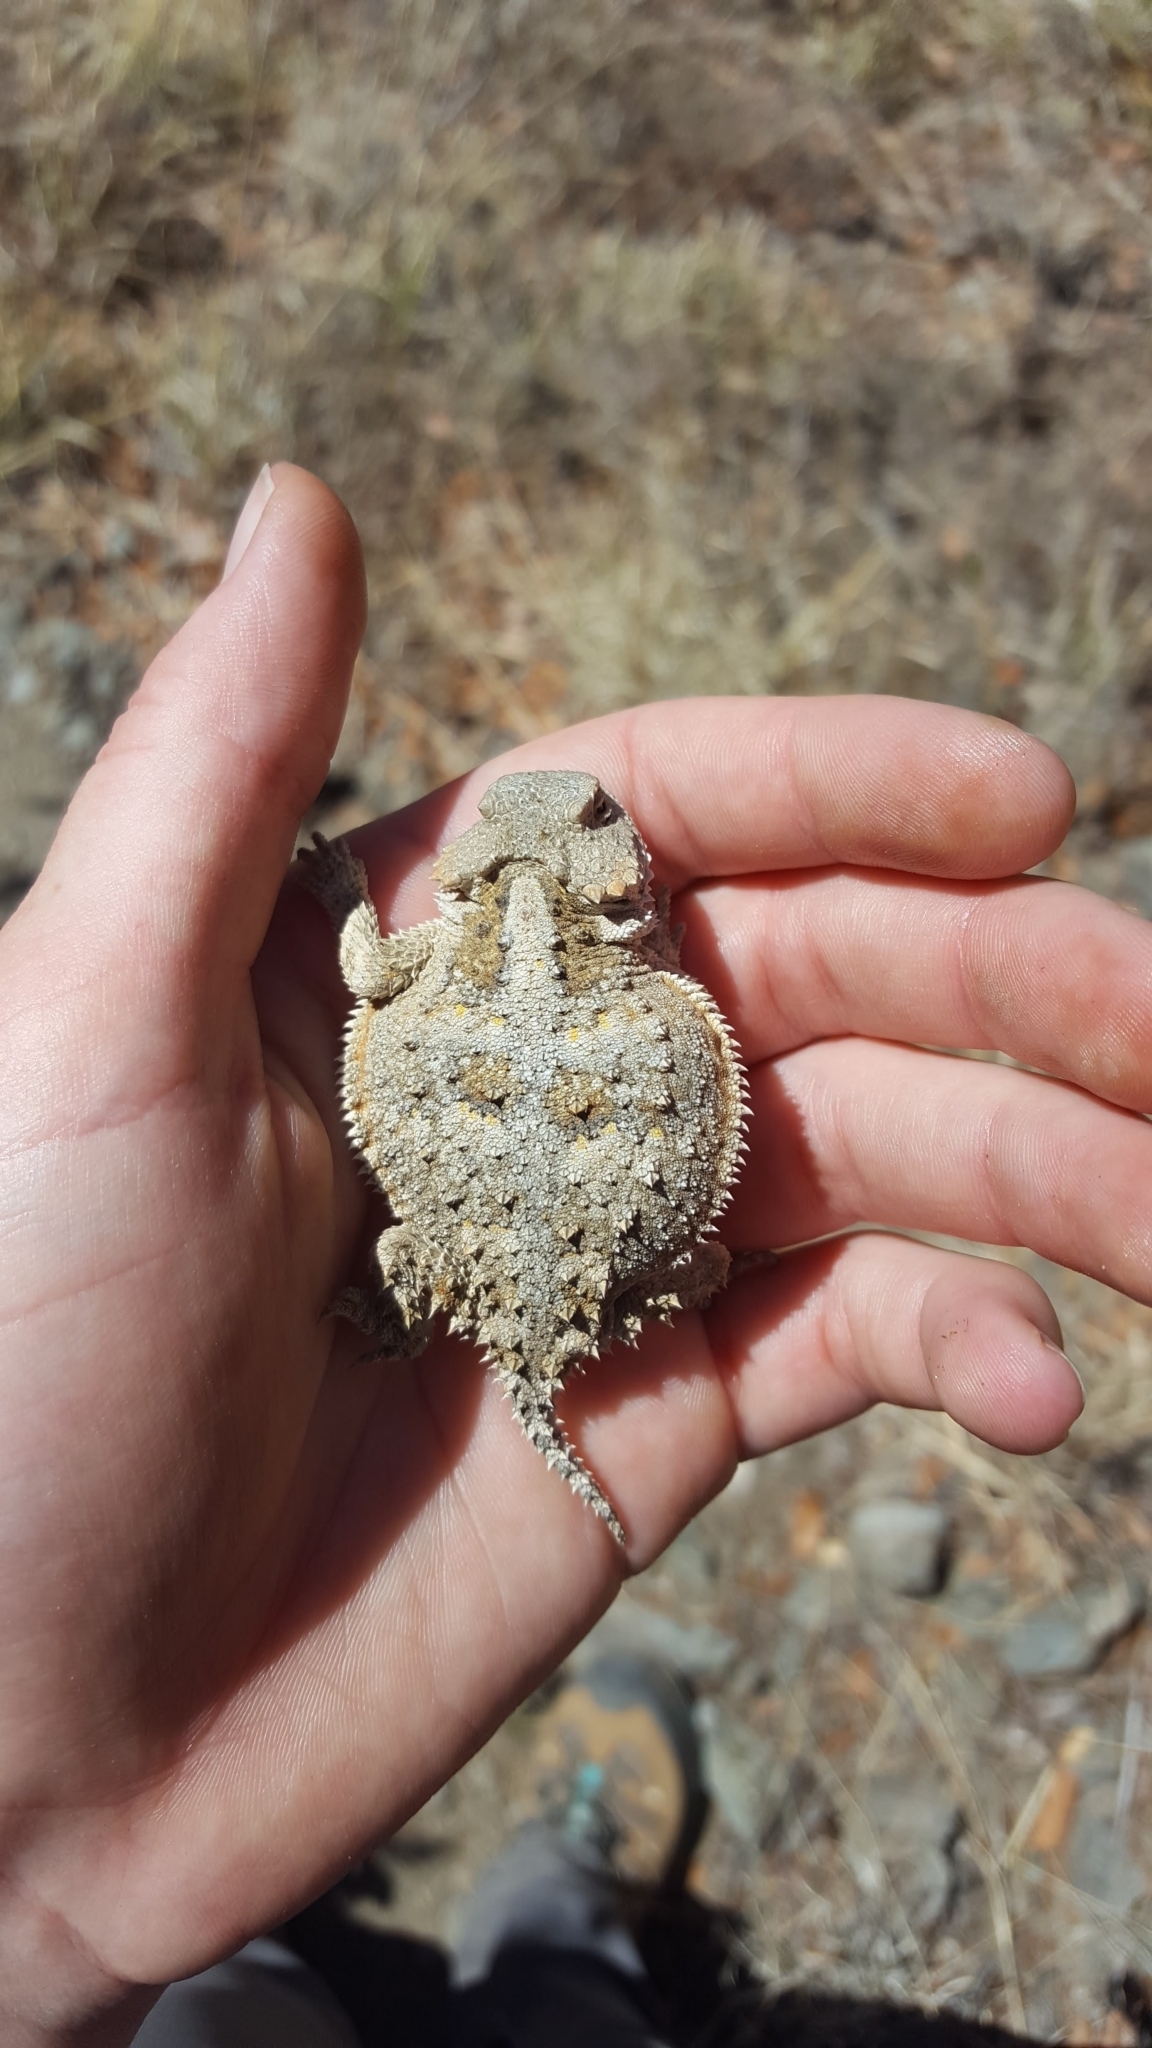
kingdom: Animalia
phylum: Chordata
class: Squamata
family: Phrynosomatidae
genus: Phrynosoma
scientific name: Phrynosoma hernandesi
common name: Greater short-horned lizard
